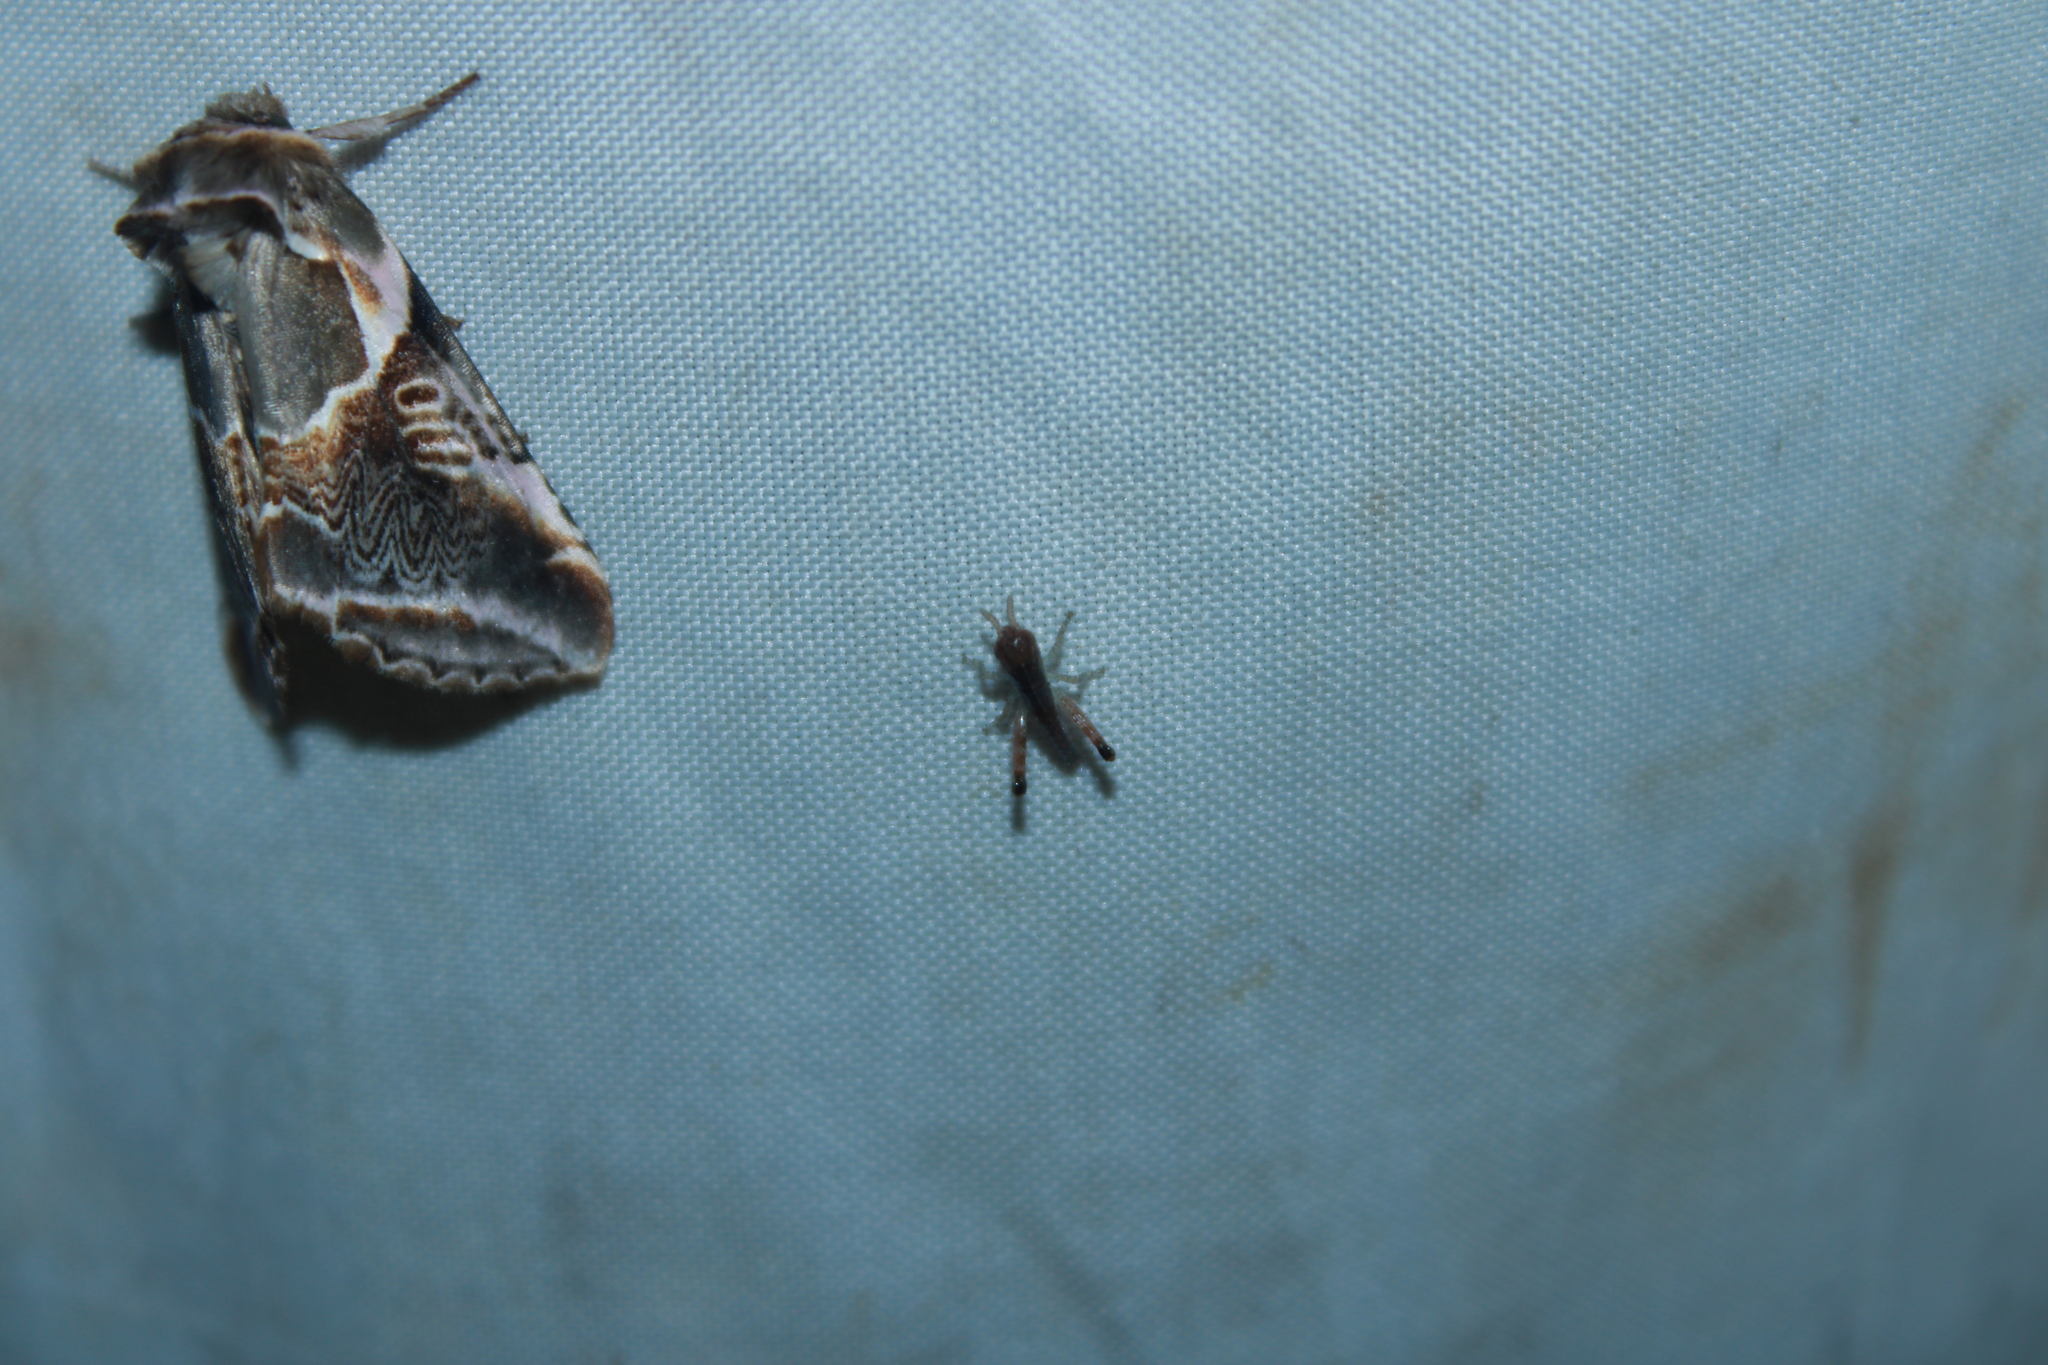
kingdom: Animalia
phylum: Arthropoda
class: Insecta
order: Lepidoptera
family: Drepanidae
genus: Habrosyne
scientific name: Habrosyne scripta
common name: Lettered habrosyne moth
